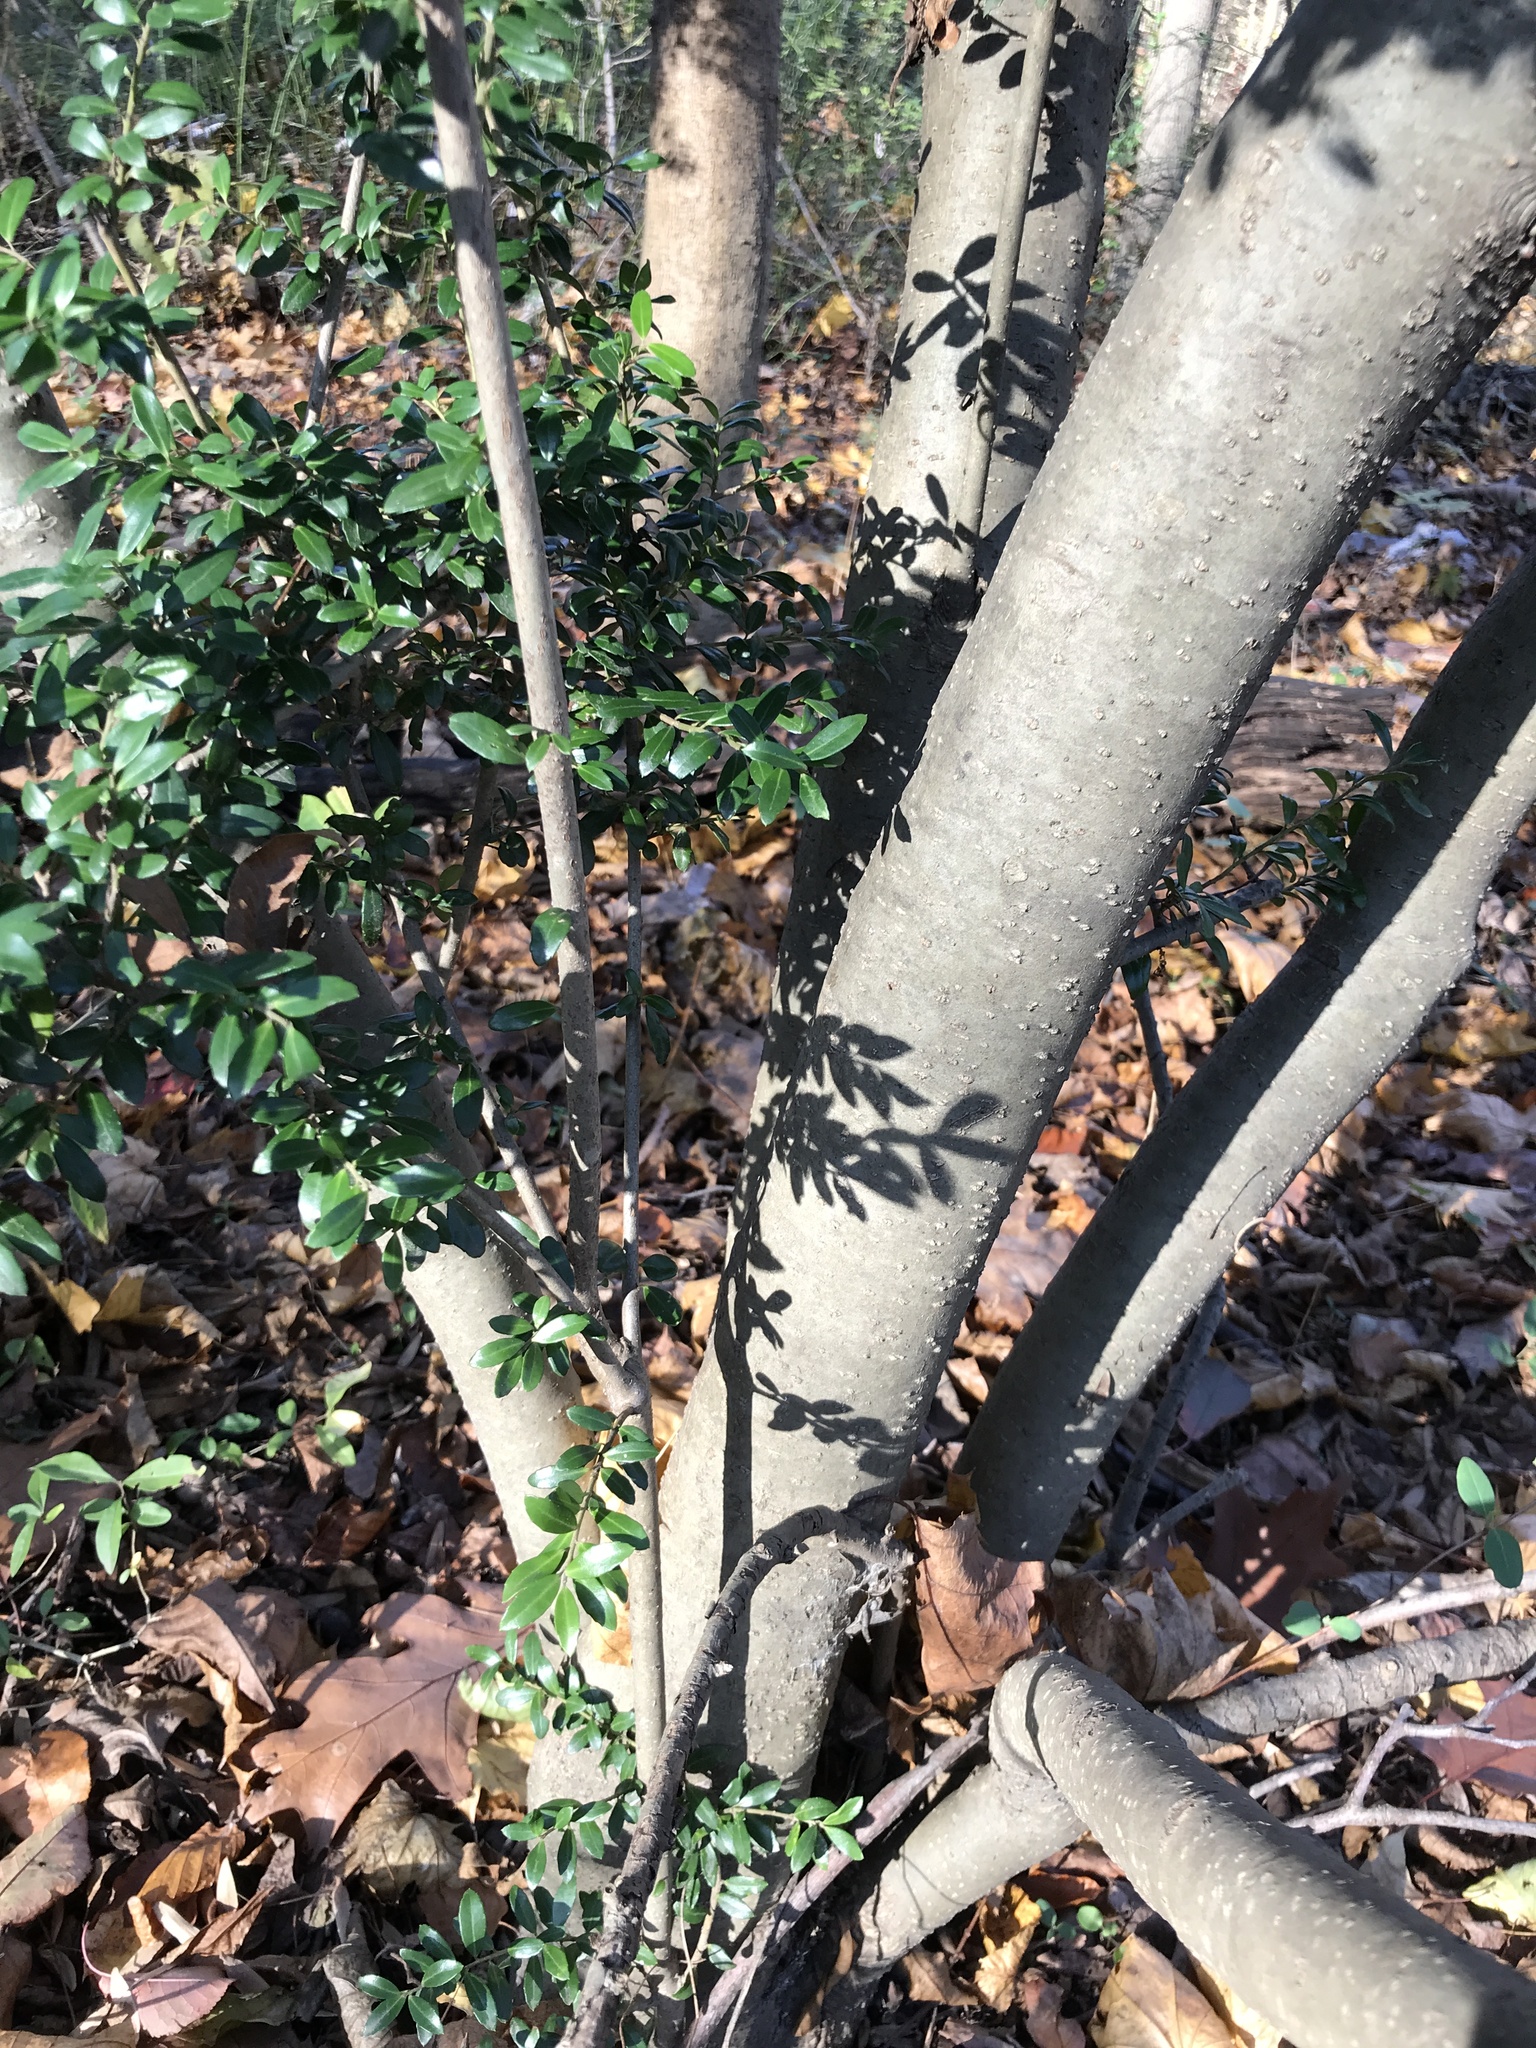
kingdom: Plantae
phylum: Tracheophyta
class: Magnoliopsida
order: Aquifoliales
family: Aquifoliaceae
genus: Ilex
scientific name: Ilex crenata
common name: Japanese holly
